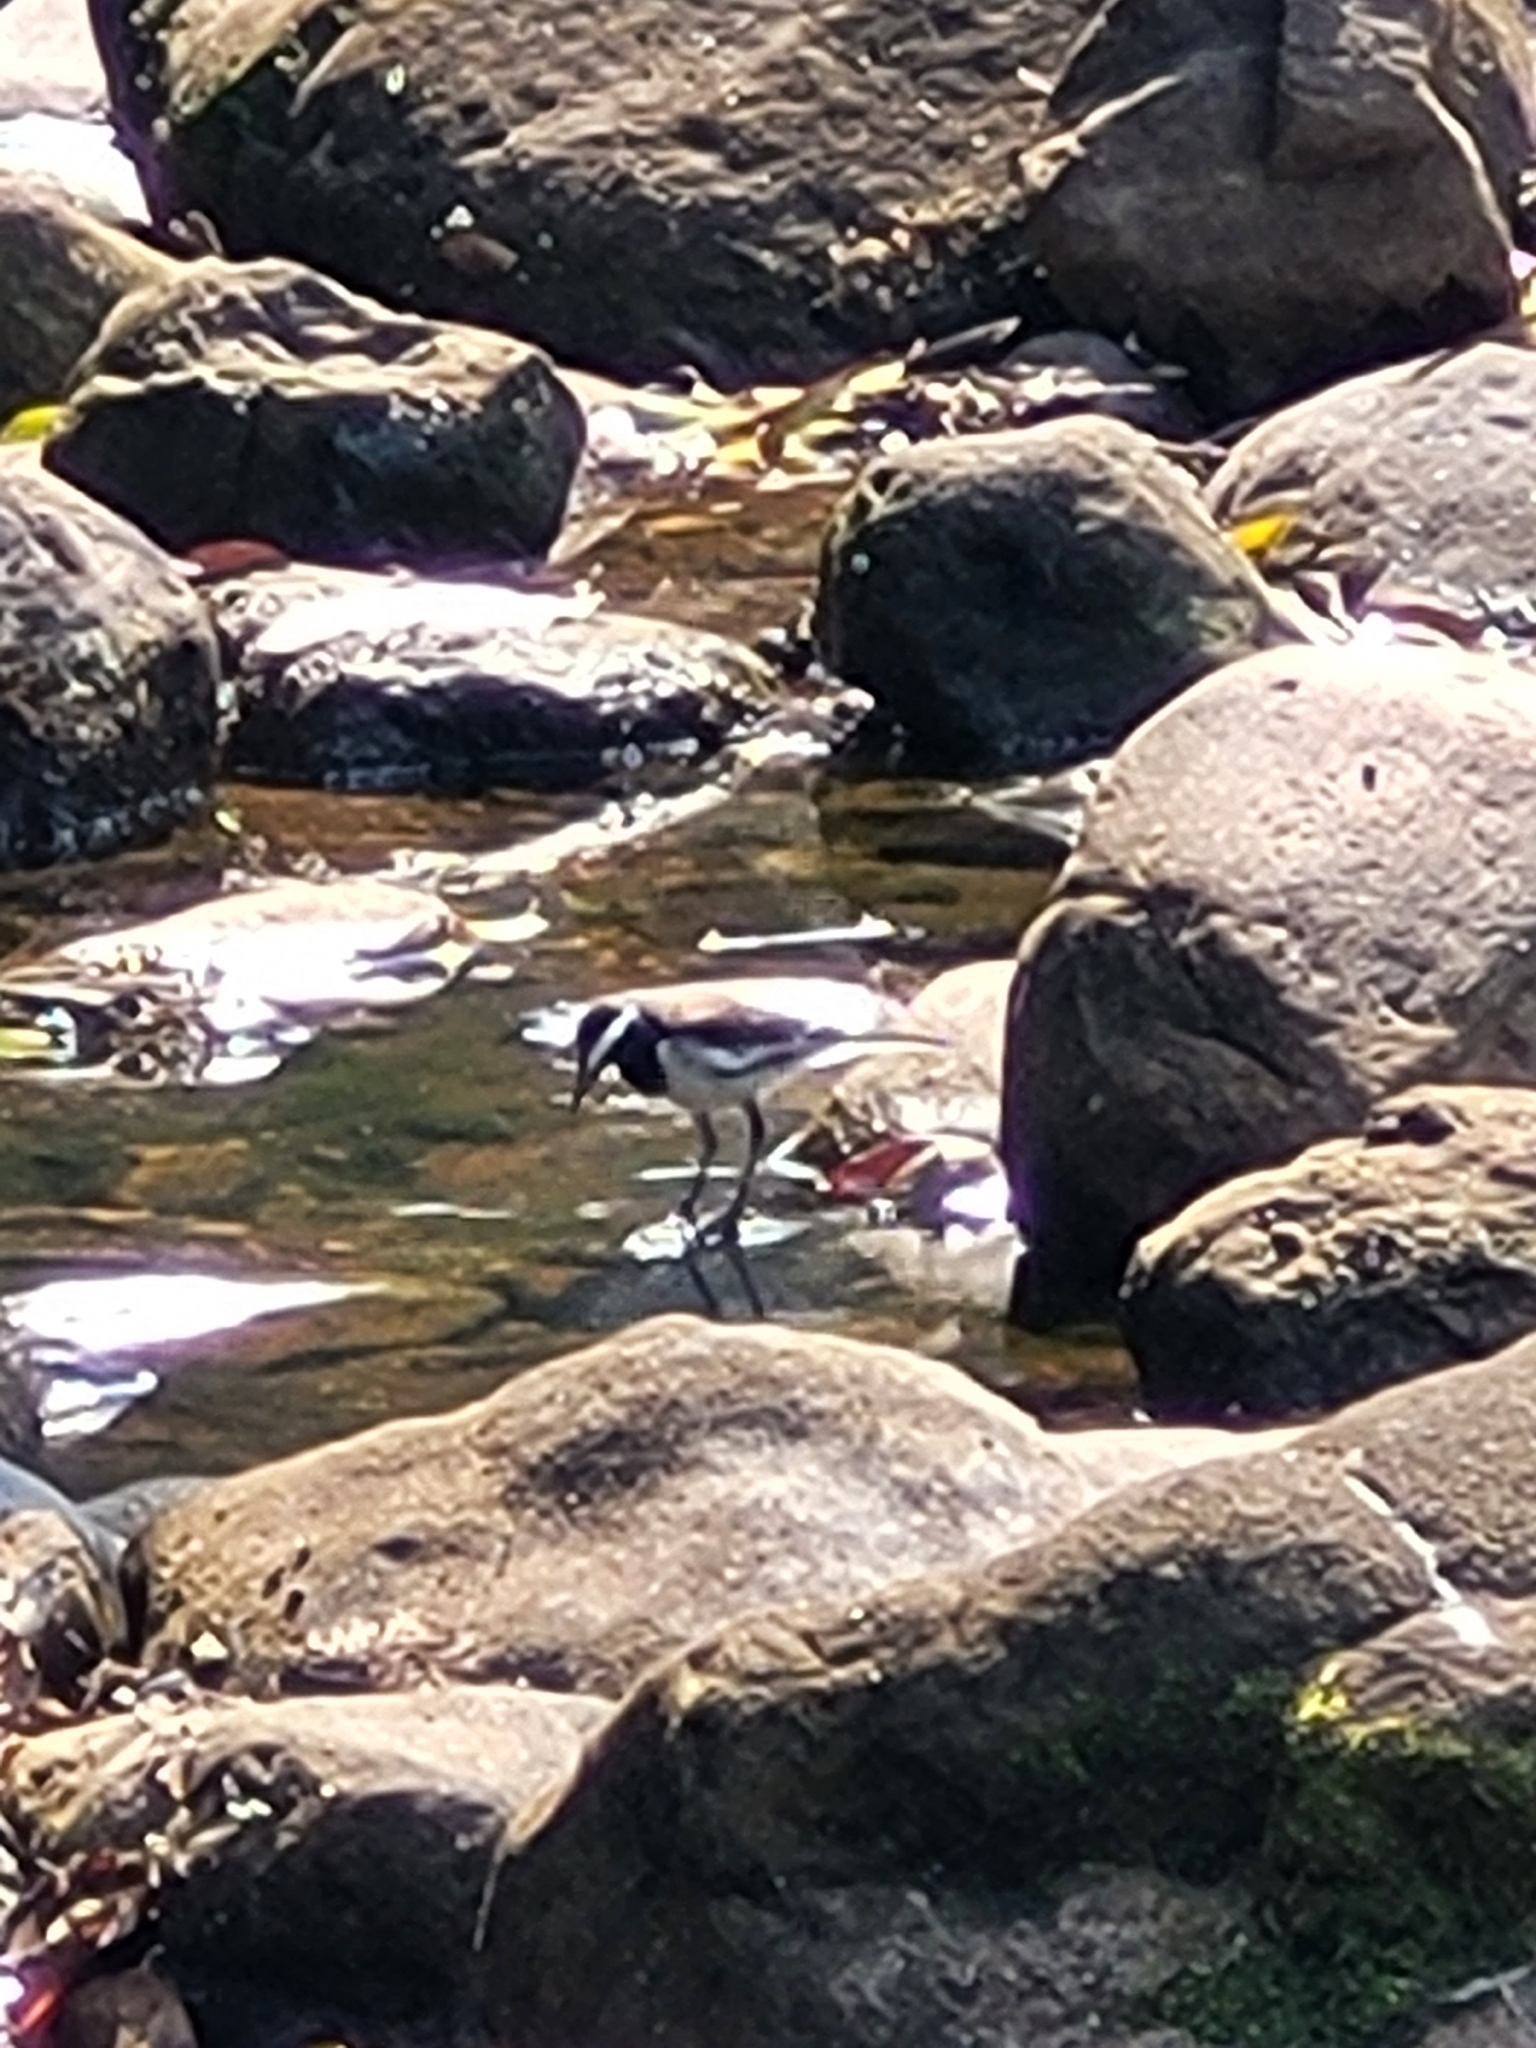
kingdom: Animalia
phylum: Chordata
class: Aves
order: Passeriformes
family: Motacillidae
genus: Motacilla
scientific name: Motacilla maderaspatensis
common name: White-browed wagtail
